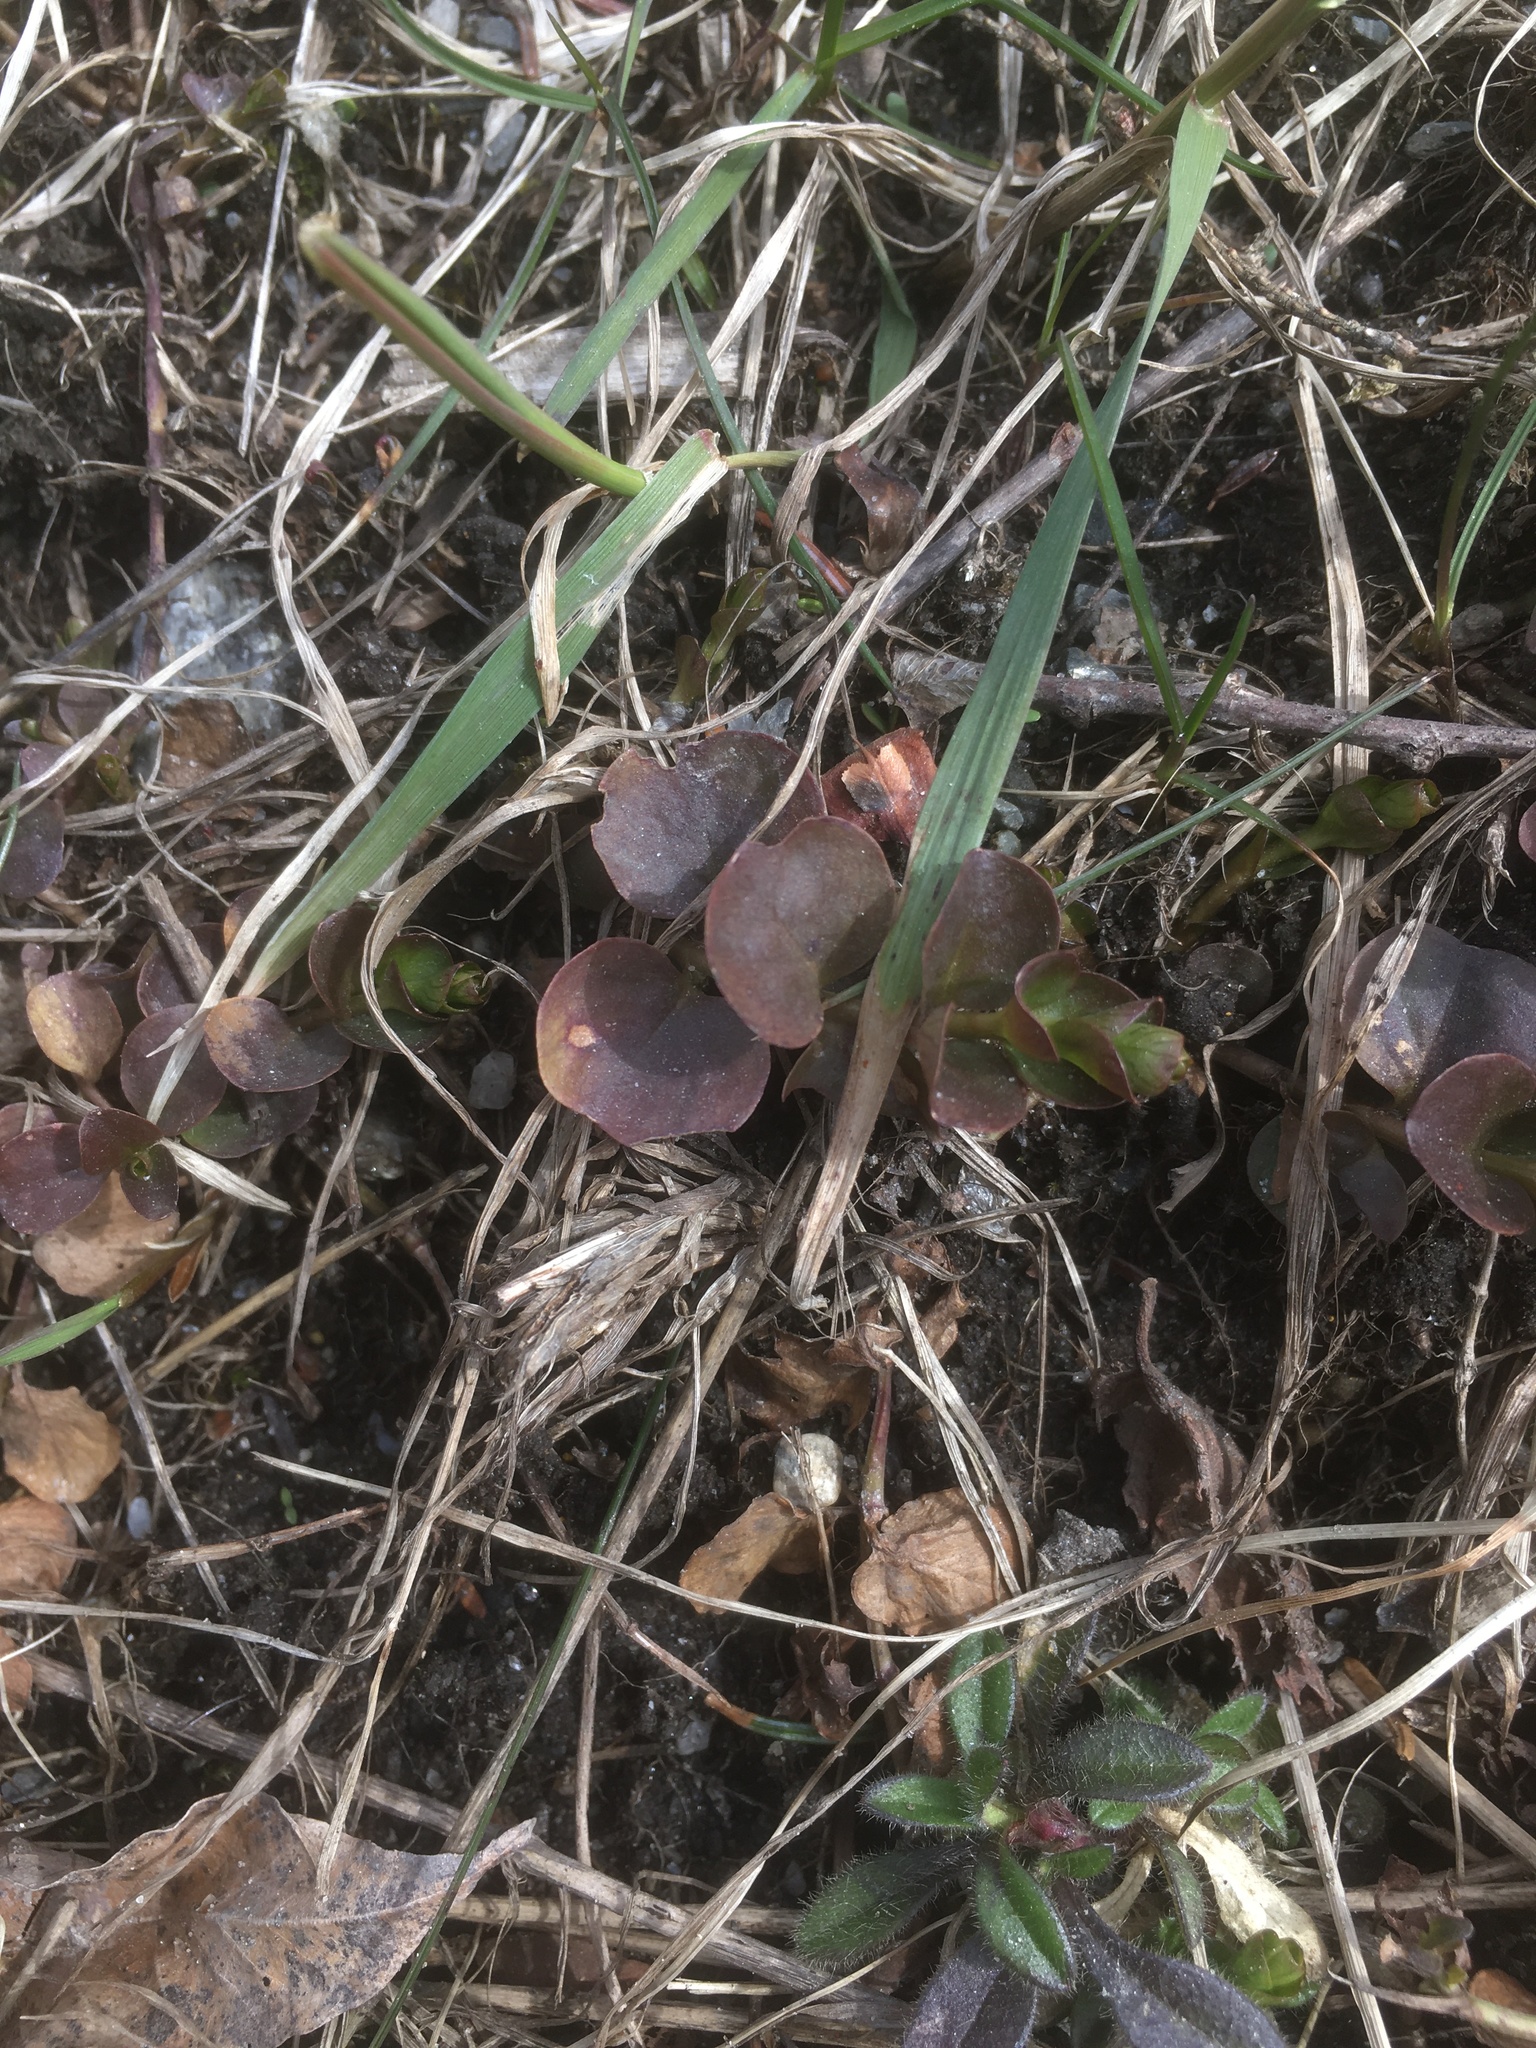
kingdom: Plantae
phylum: Tracheophyta
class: Magnoliopsida
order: Ericales
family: Primulaceae
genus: Lysimachia
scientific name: Lysimachia nummularia
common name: Moneywort
